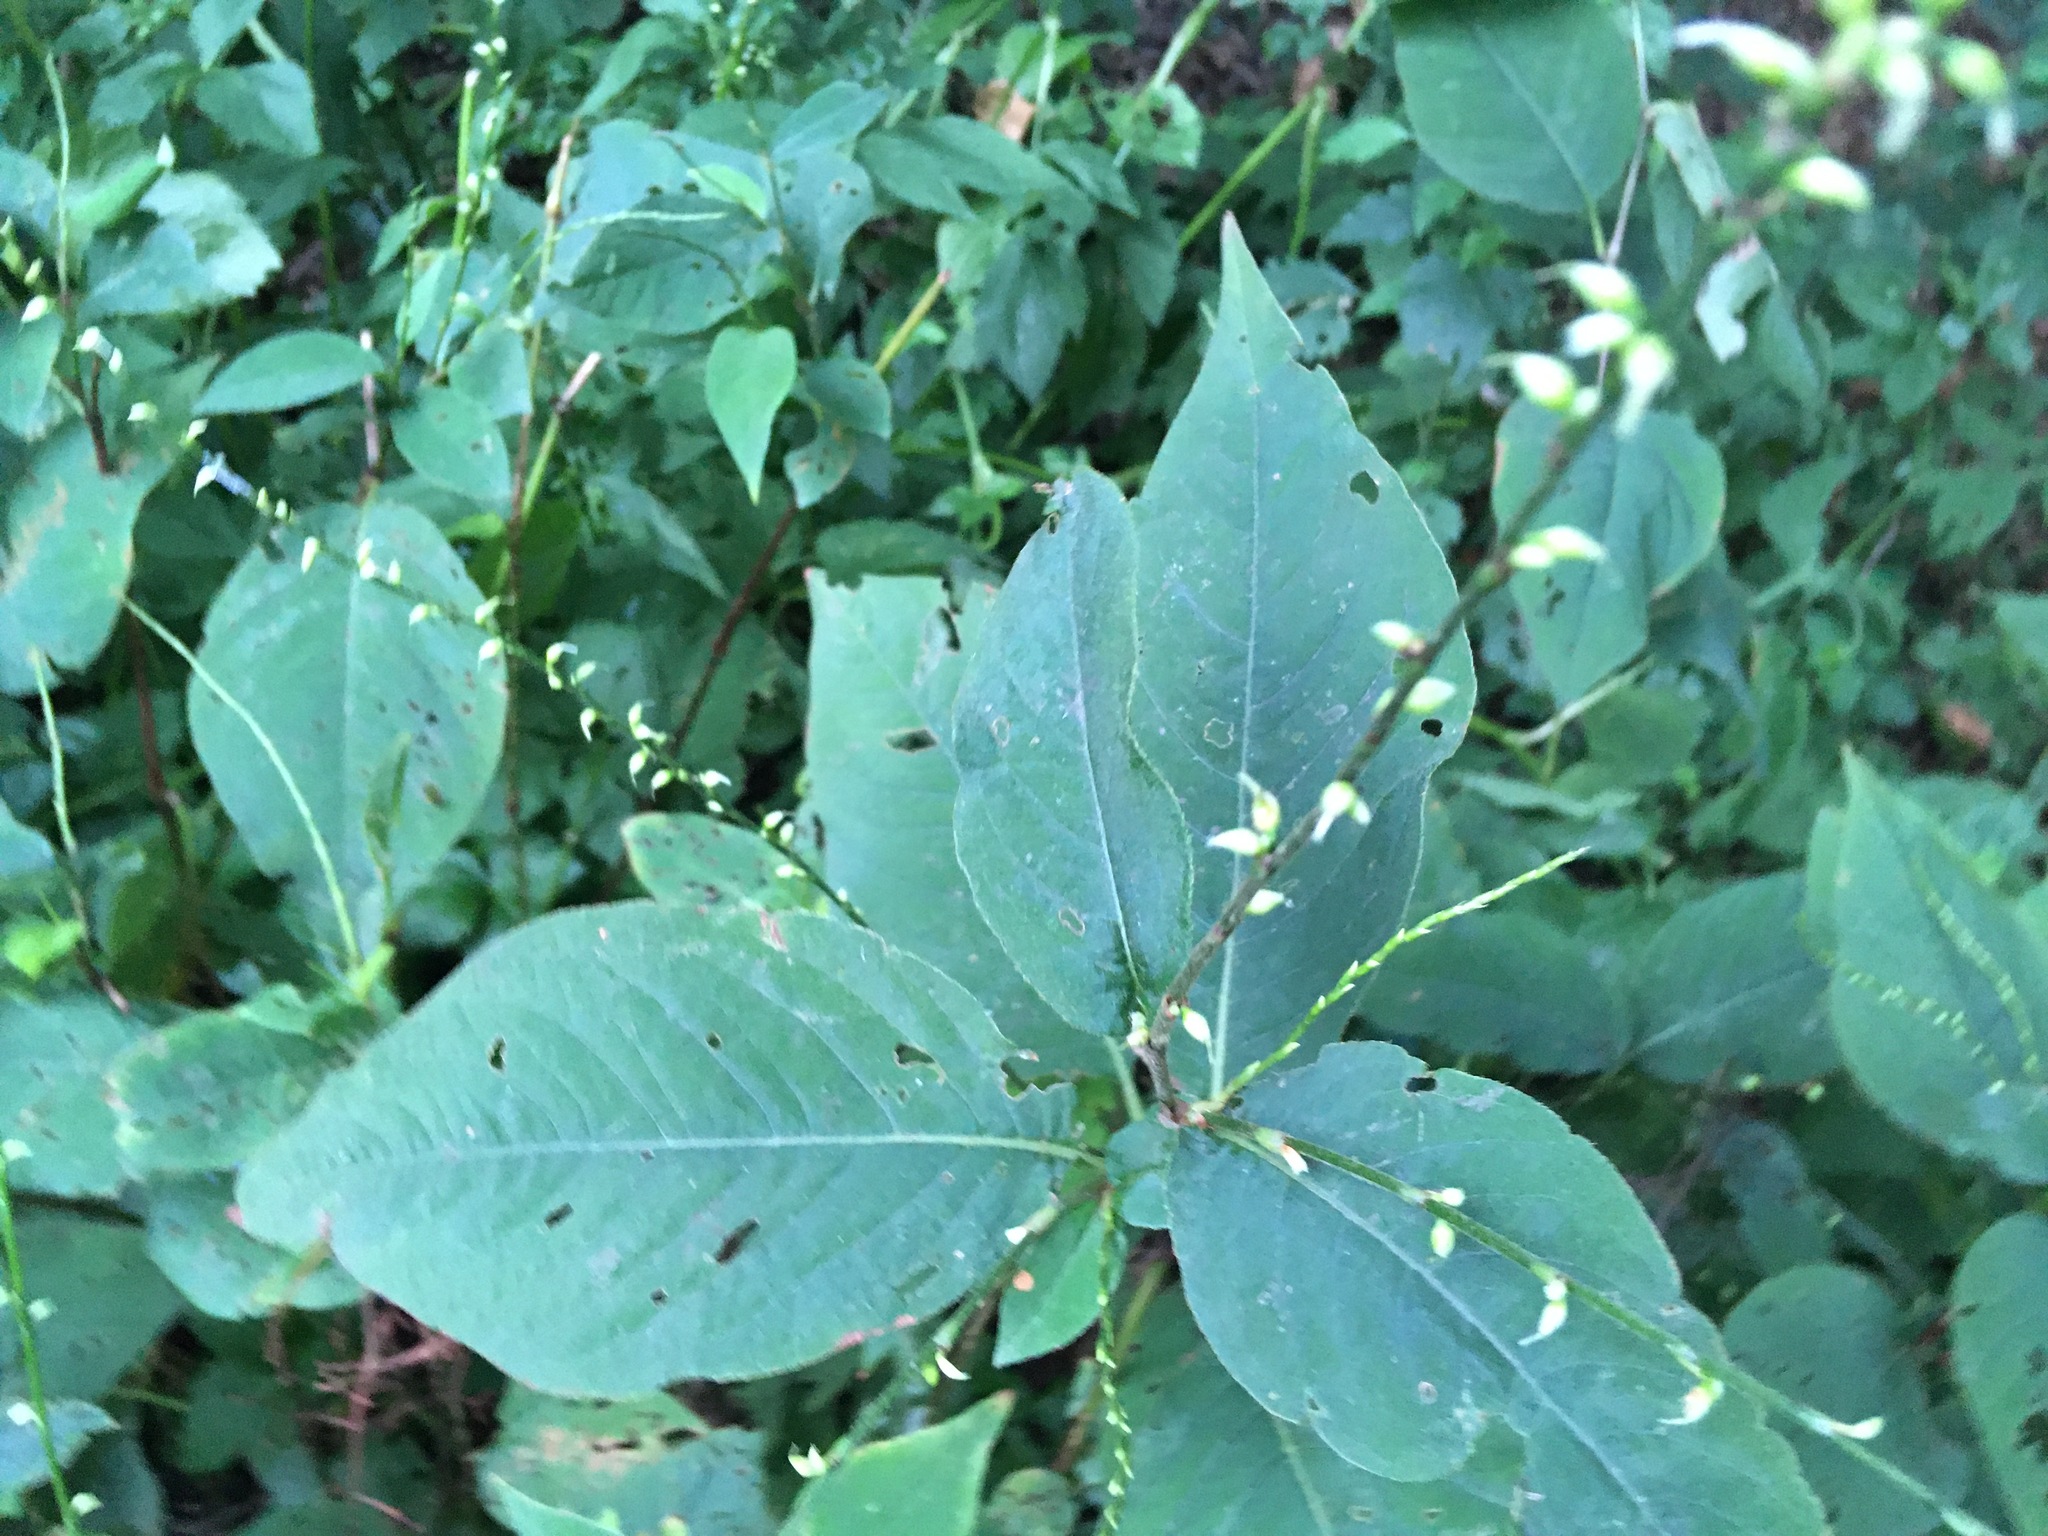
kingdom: Plantae
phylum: Tracheophyta
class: Magnoliopsida
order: Caryophyllales
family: Polygonaceae
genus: Persicaria
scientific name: Persicaria virginiana
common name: Jumpseed
